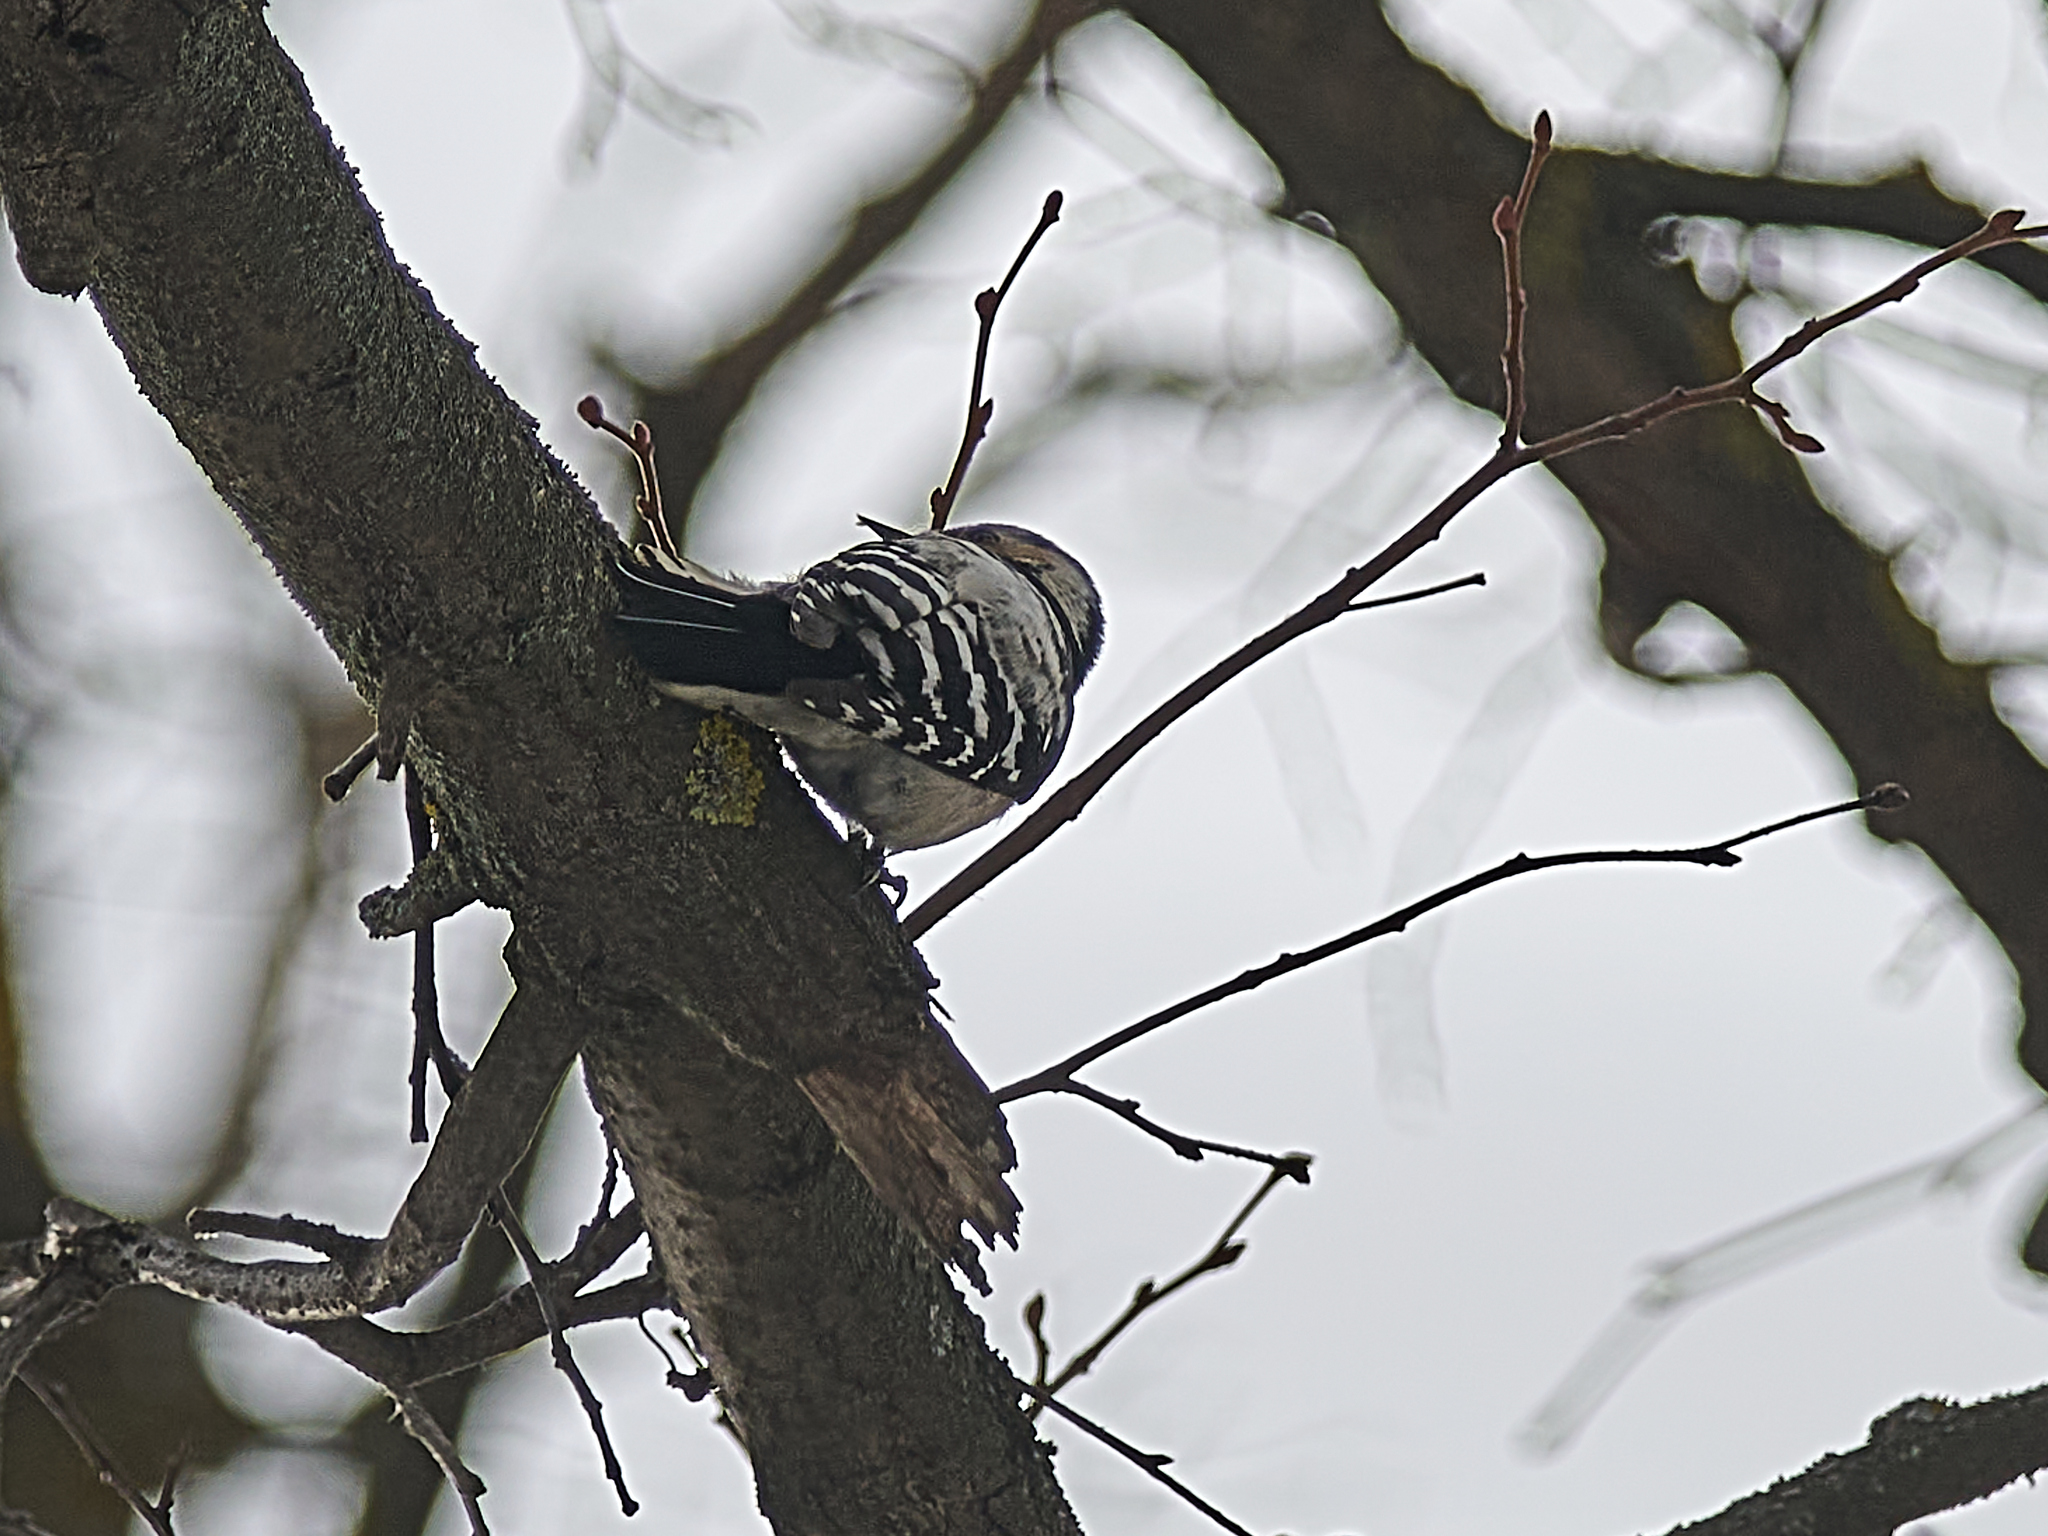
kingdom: Animalia
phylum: Chordata
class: Aves
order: Piciformes
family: Picidae
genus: Dryobates
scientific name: Dryobates minor
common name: Lesser spotted woodpecker
